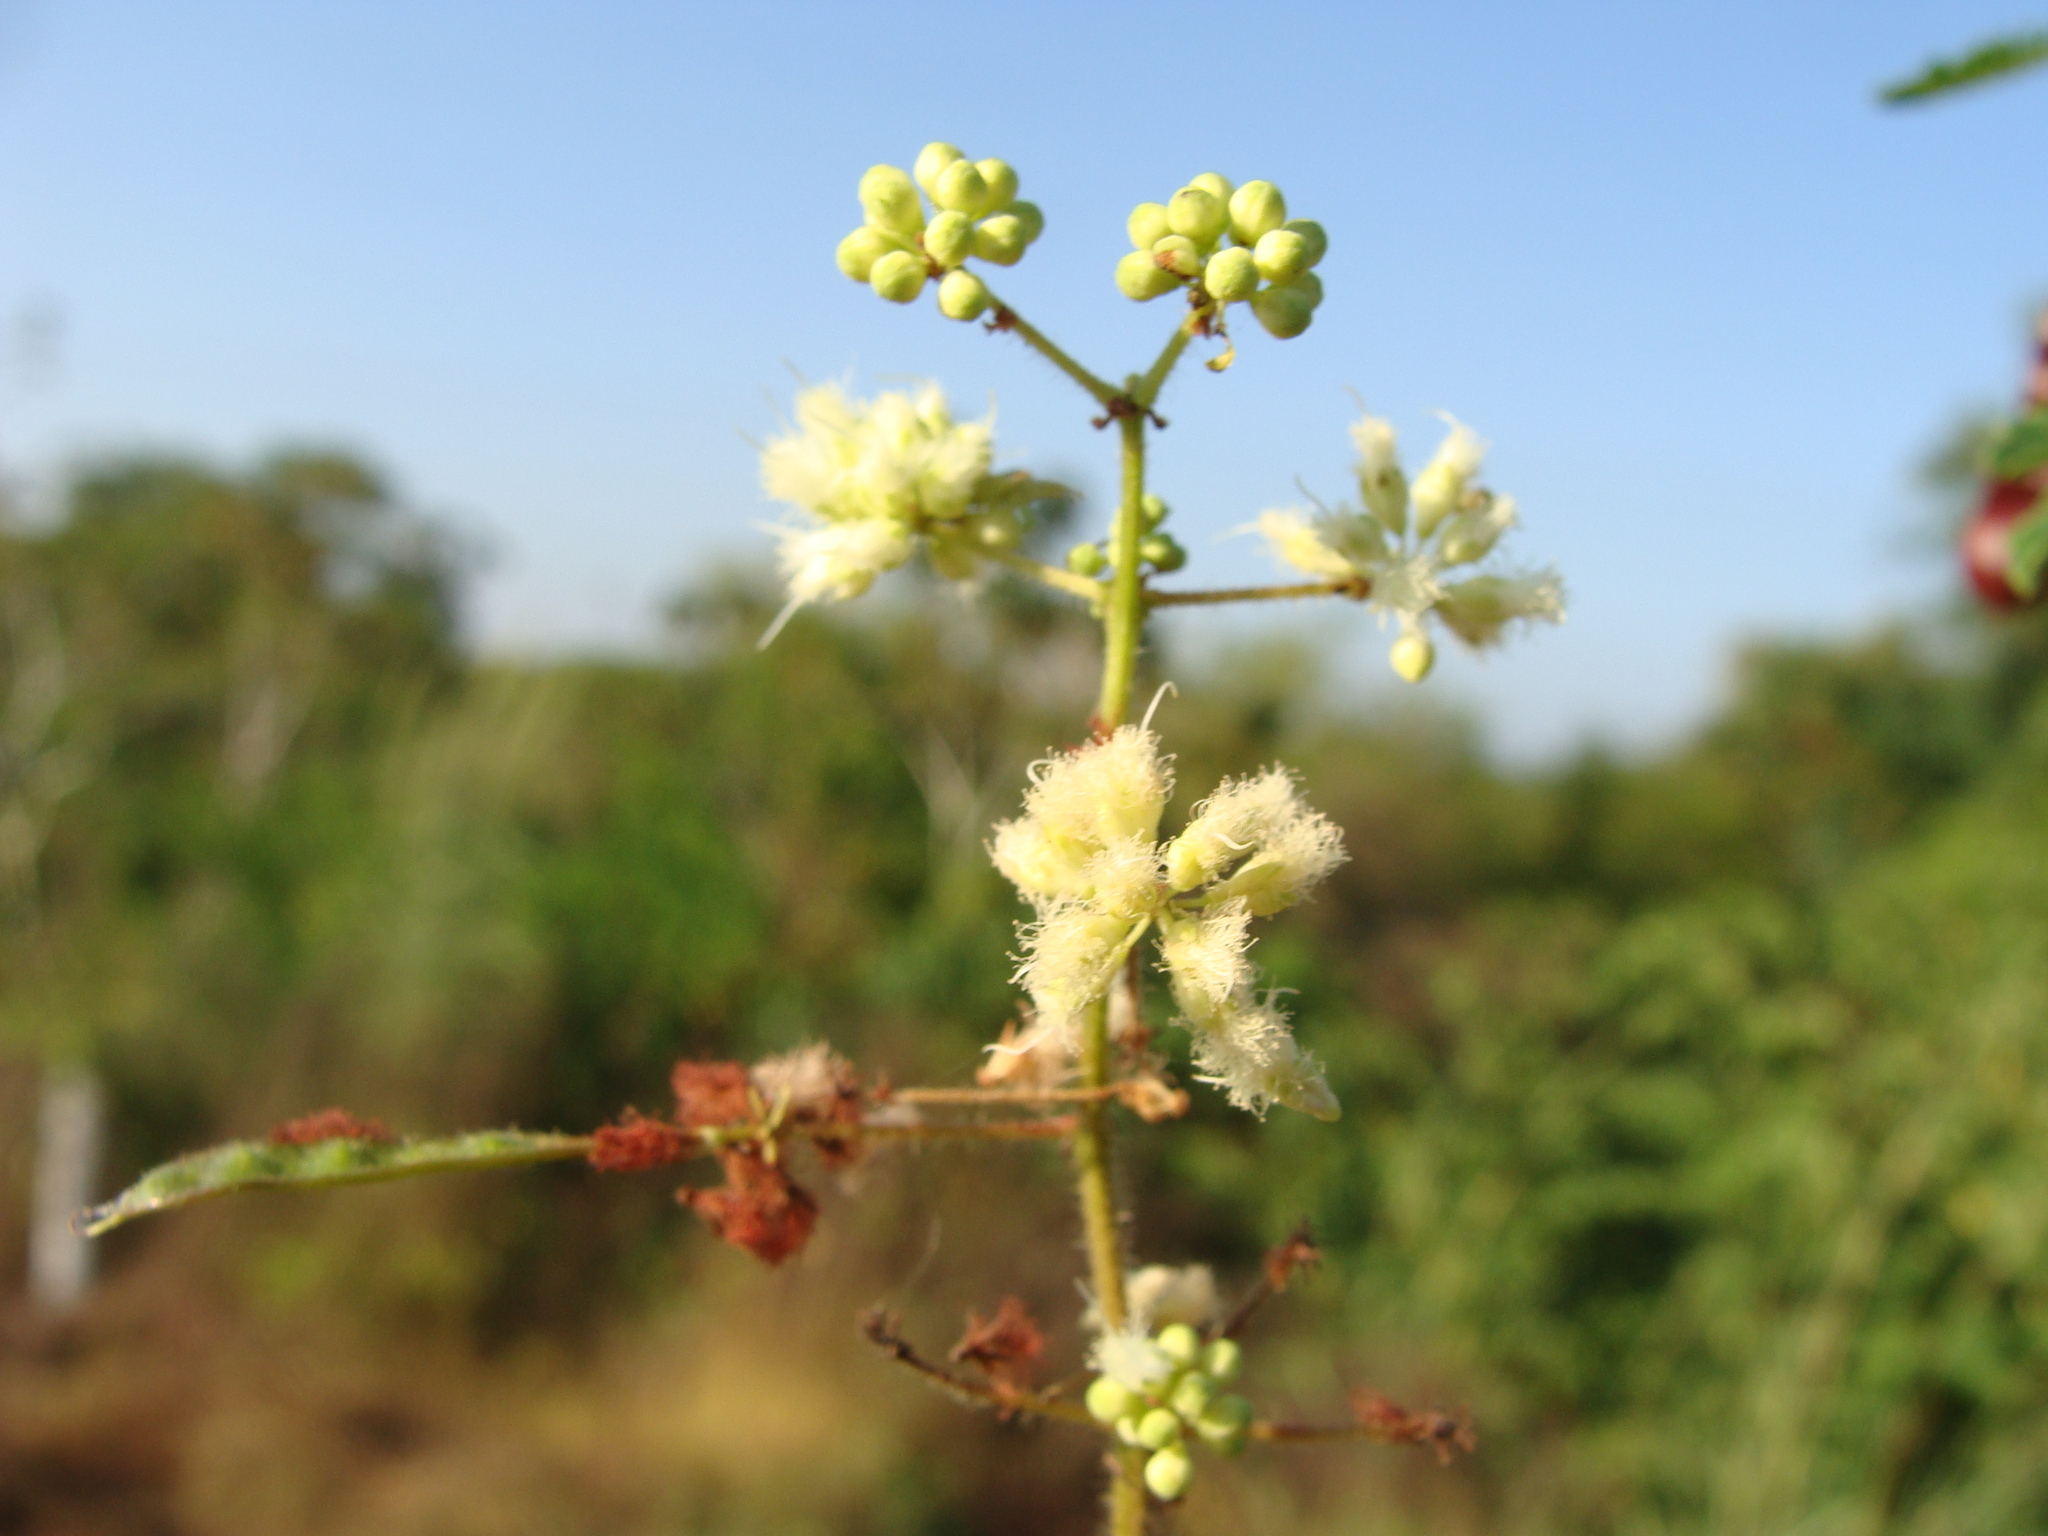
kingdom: Plantae
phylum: Tracheophyta
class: Magnoliopsida
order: Fabales
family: Fabaceae
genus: Acaciella
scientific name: Acaciella angustissima
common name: Prairie acacia
